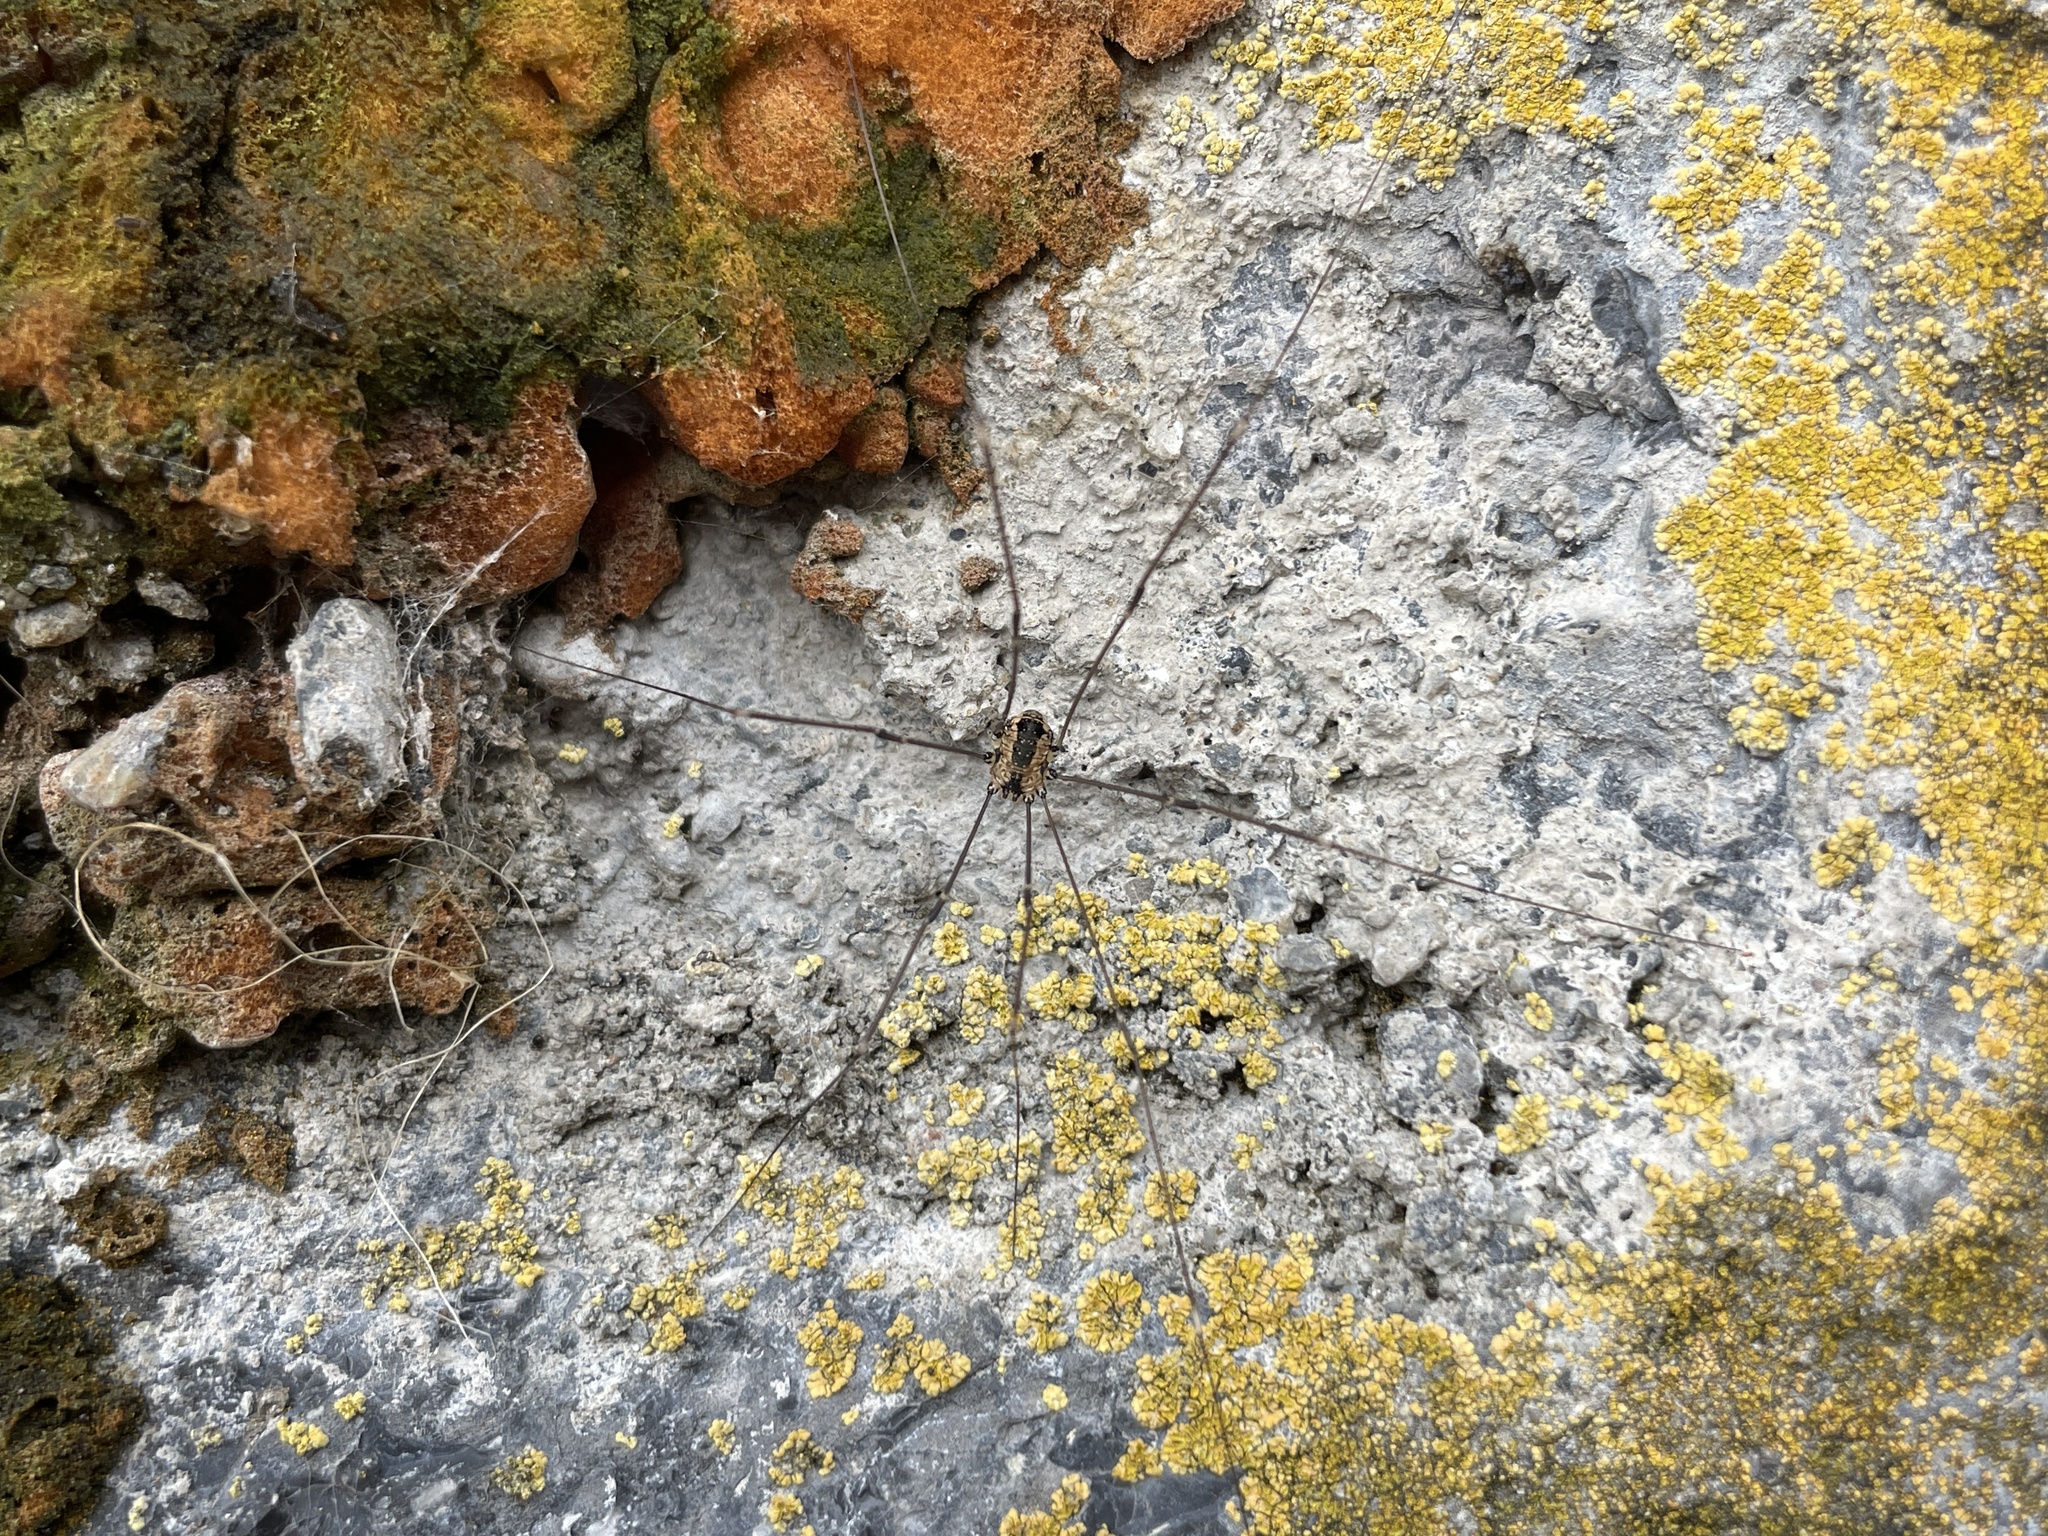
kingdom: Animalia
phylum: Arthropoda
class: Arachnida
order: Opiliones
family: Sclerosomatidae
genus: Leiobunum
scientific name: Leiobunum rotundum
